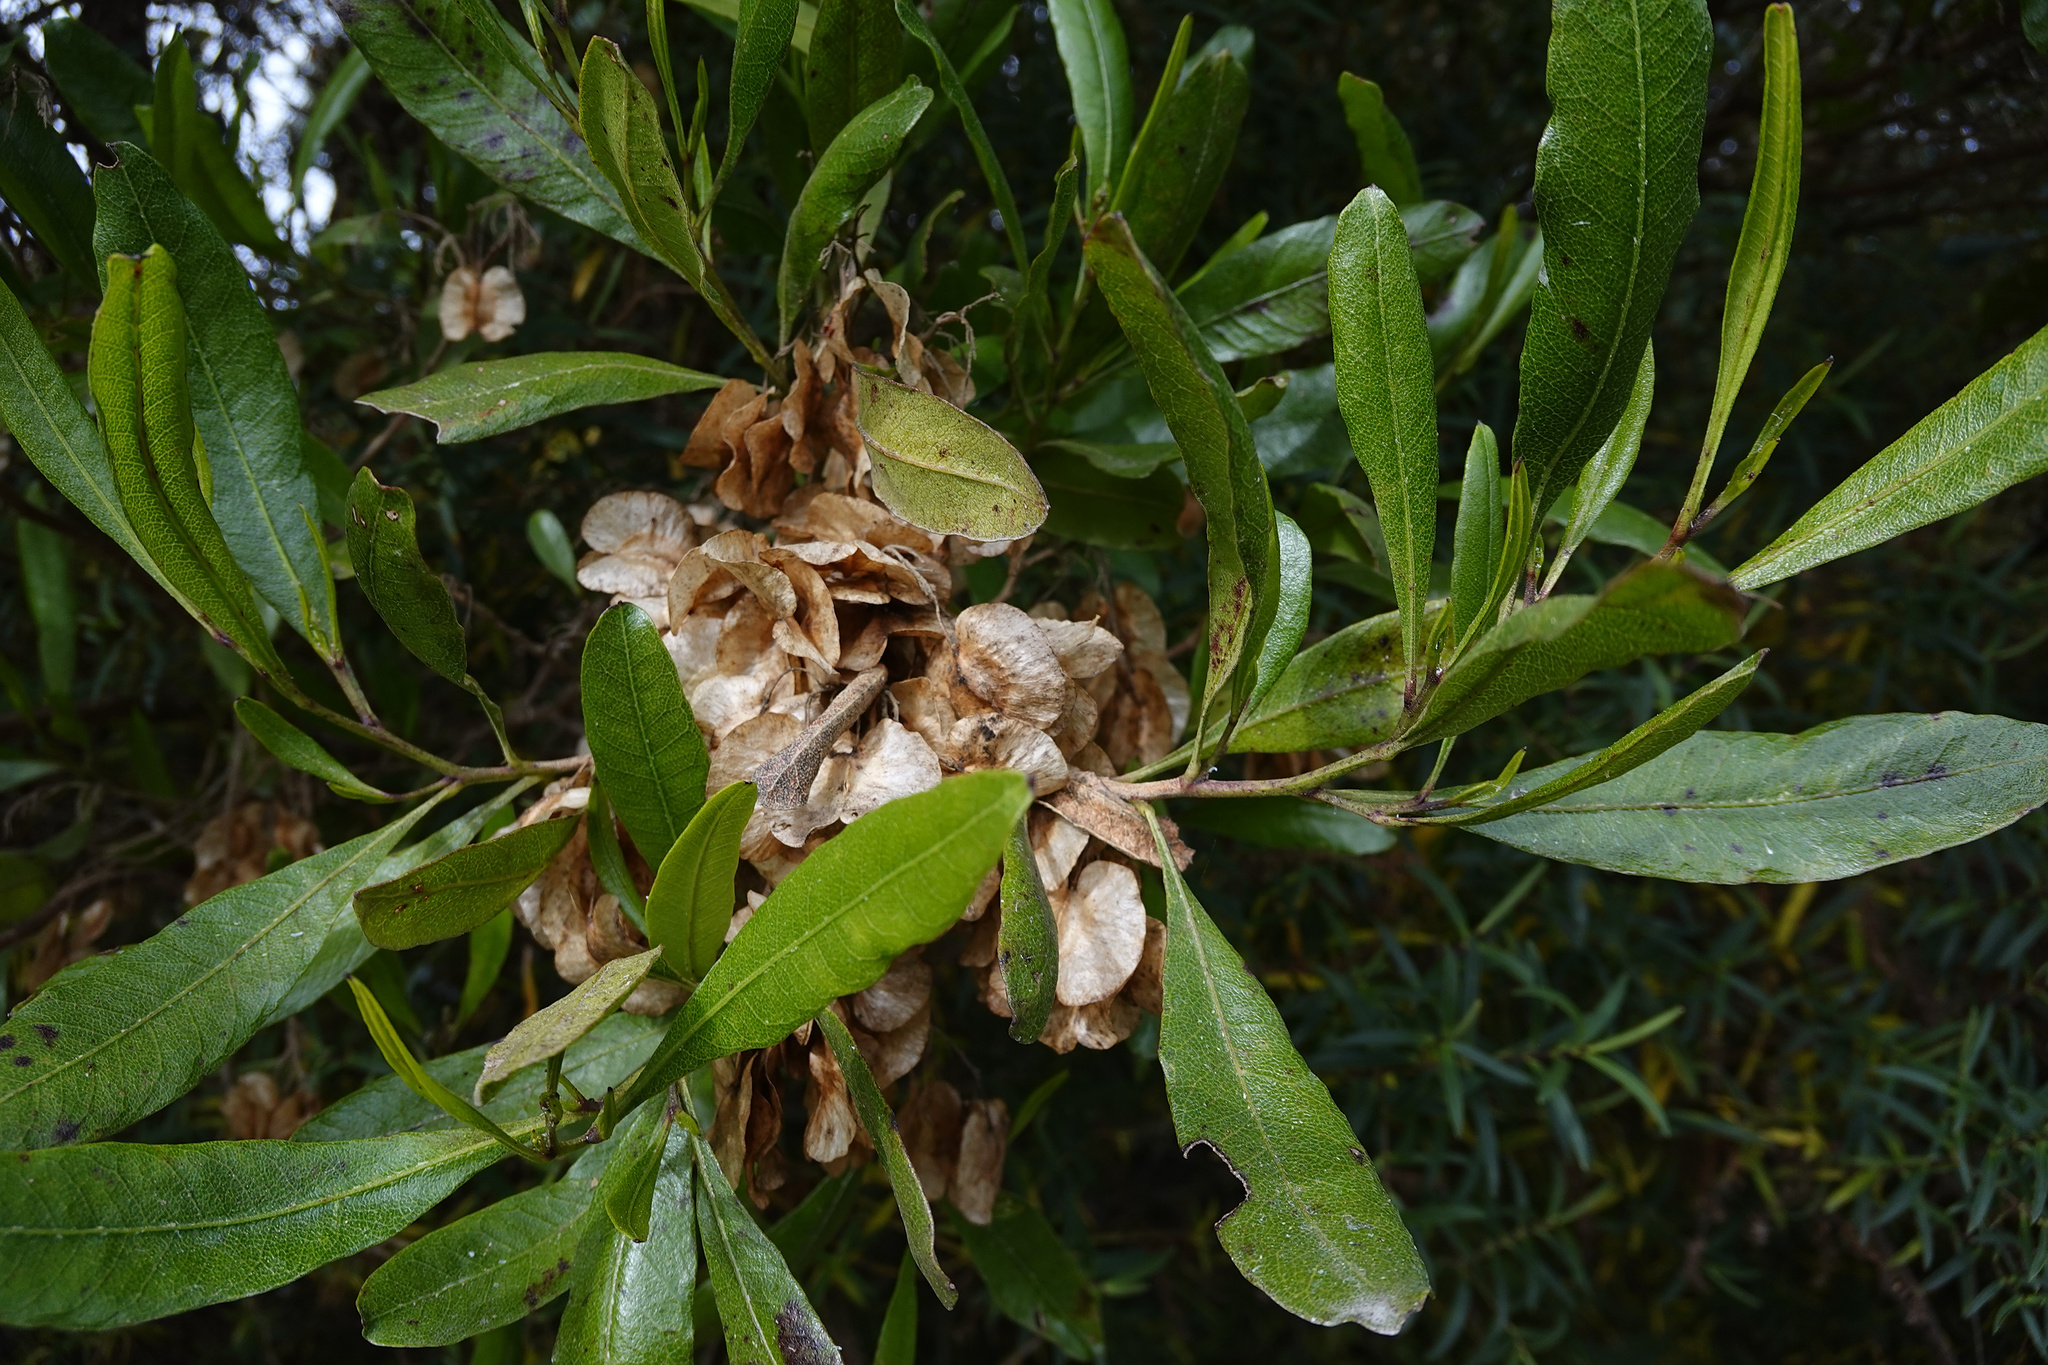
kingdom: Plantae
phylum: Tracheophyta
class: Magnoliopsida
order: Sapindales
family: Sapindaceae
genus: Dodonaea
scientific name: Dodonaea viscosa
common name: Hopbush
